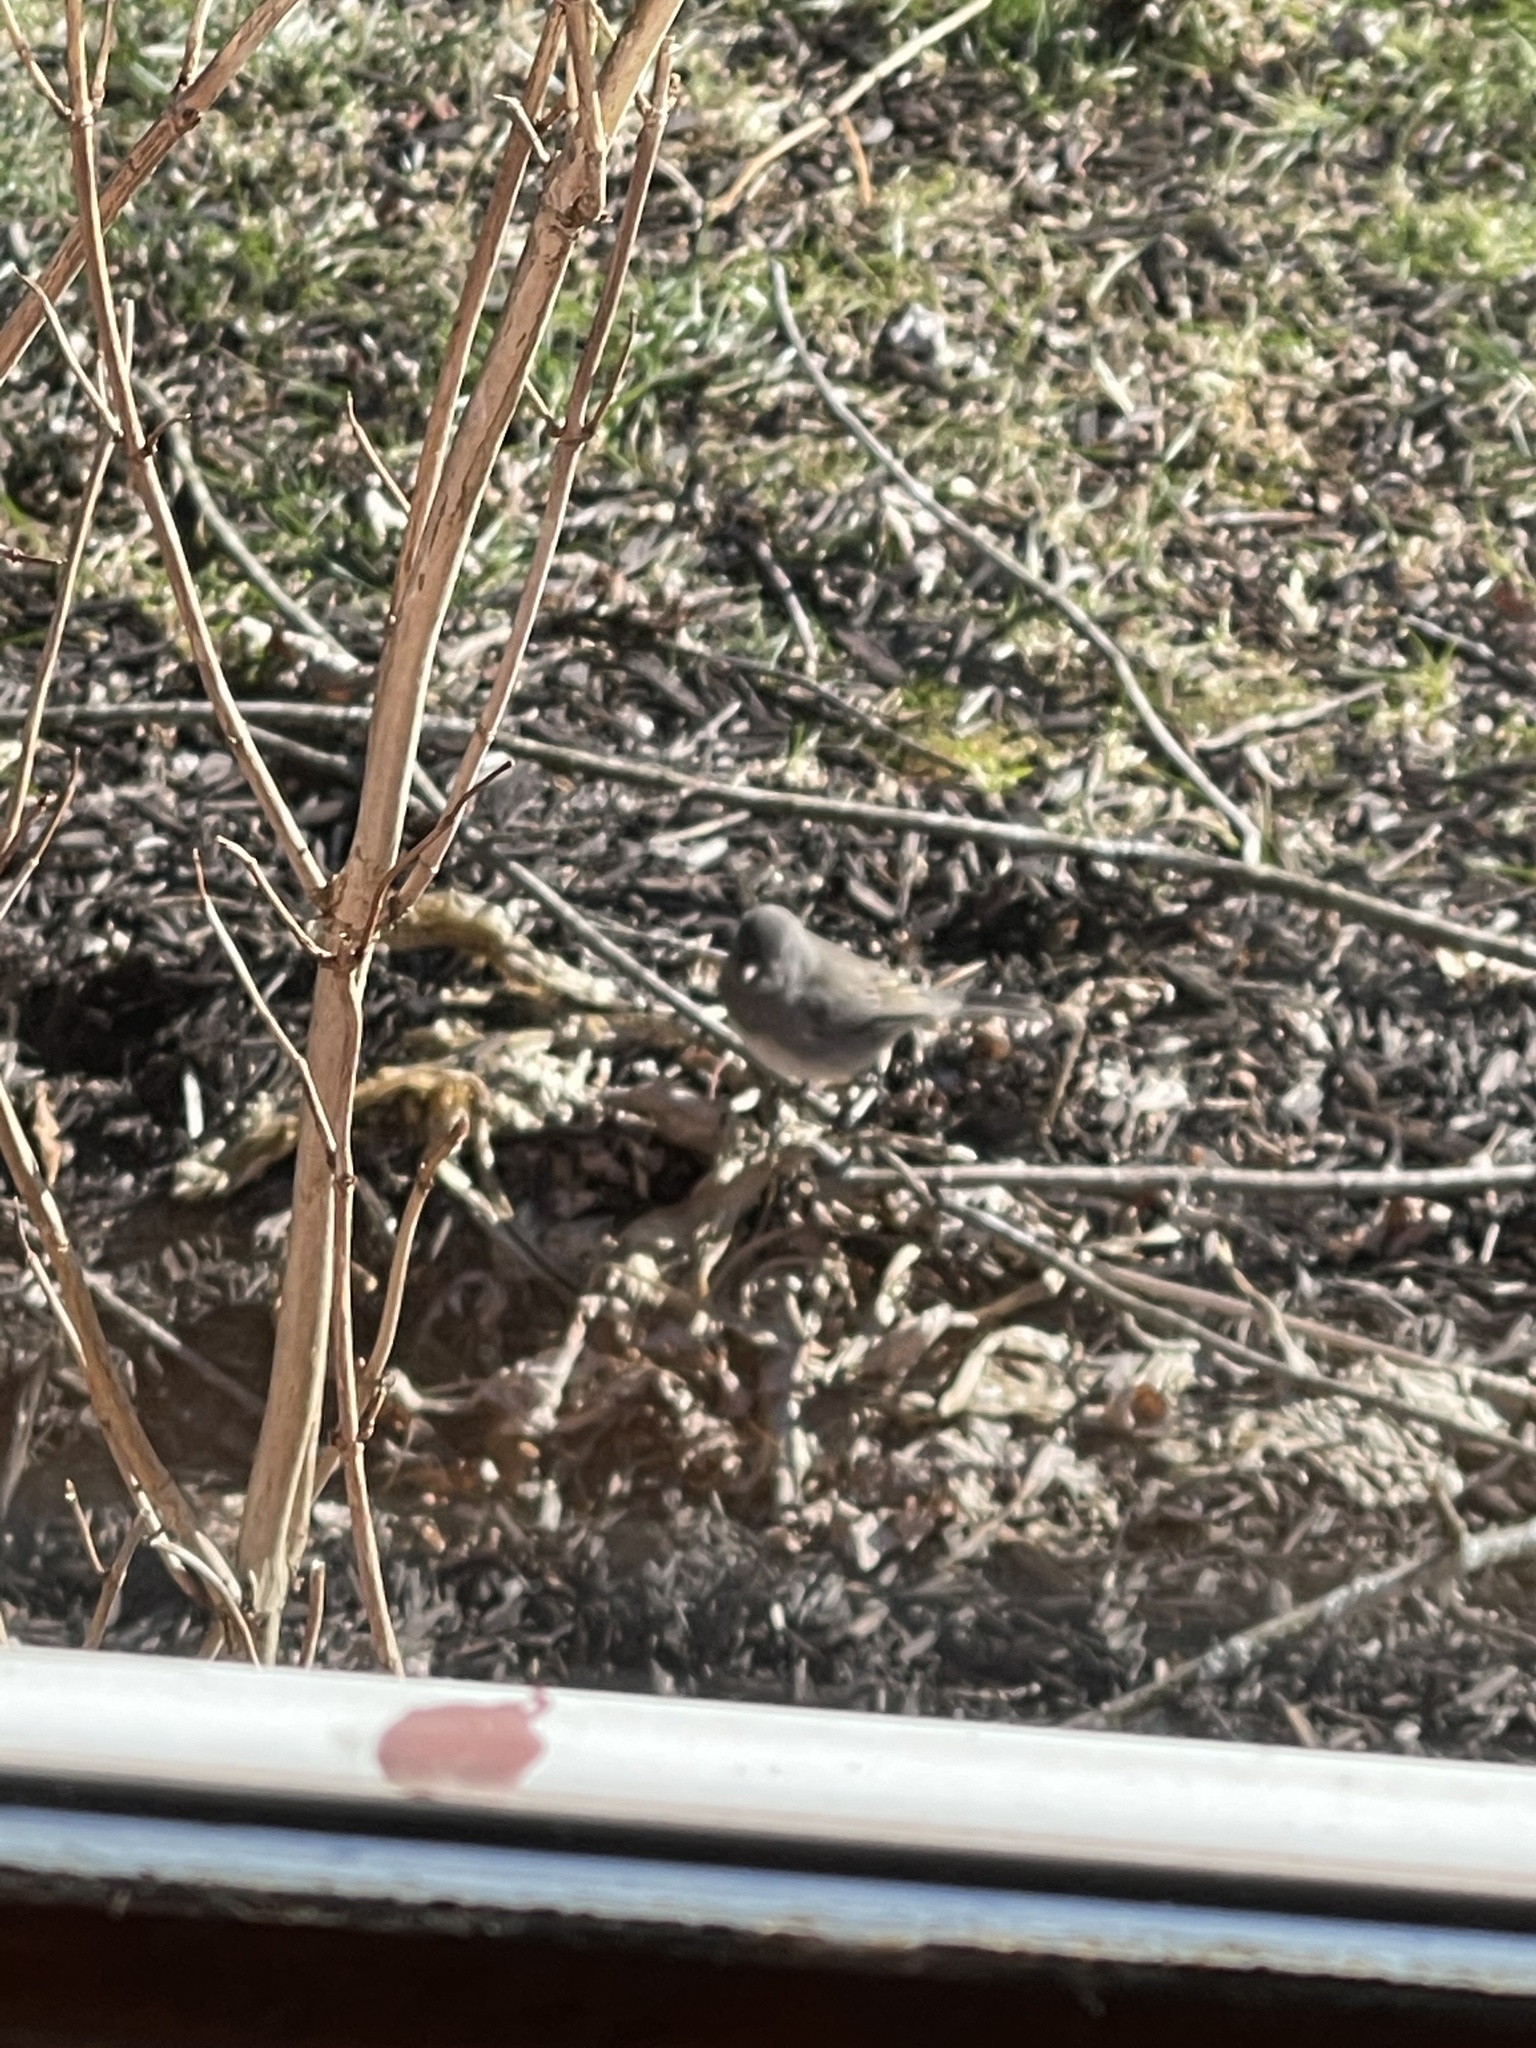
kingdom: Animalia
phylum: Chordata
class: Aves
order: Passeriformes
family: Passerellidae
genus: Junco
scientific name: Junco hyemalis
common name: Dark-eyed junco
